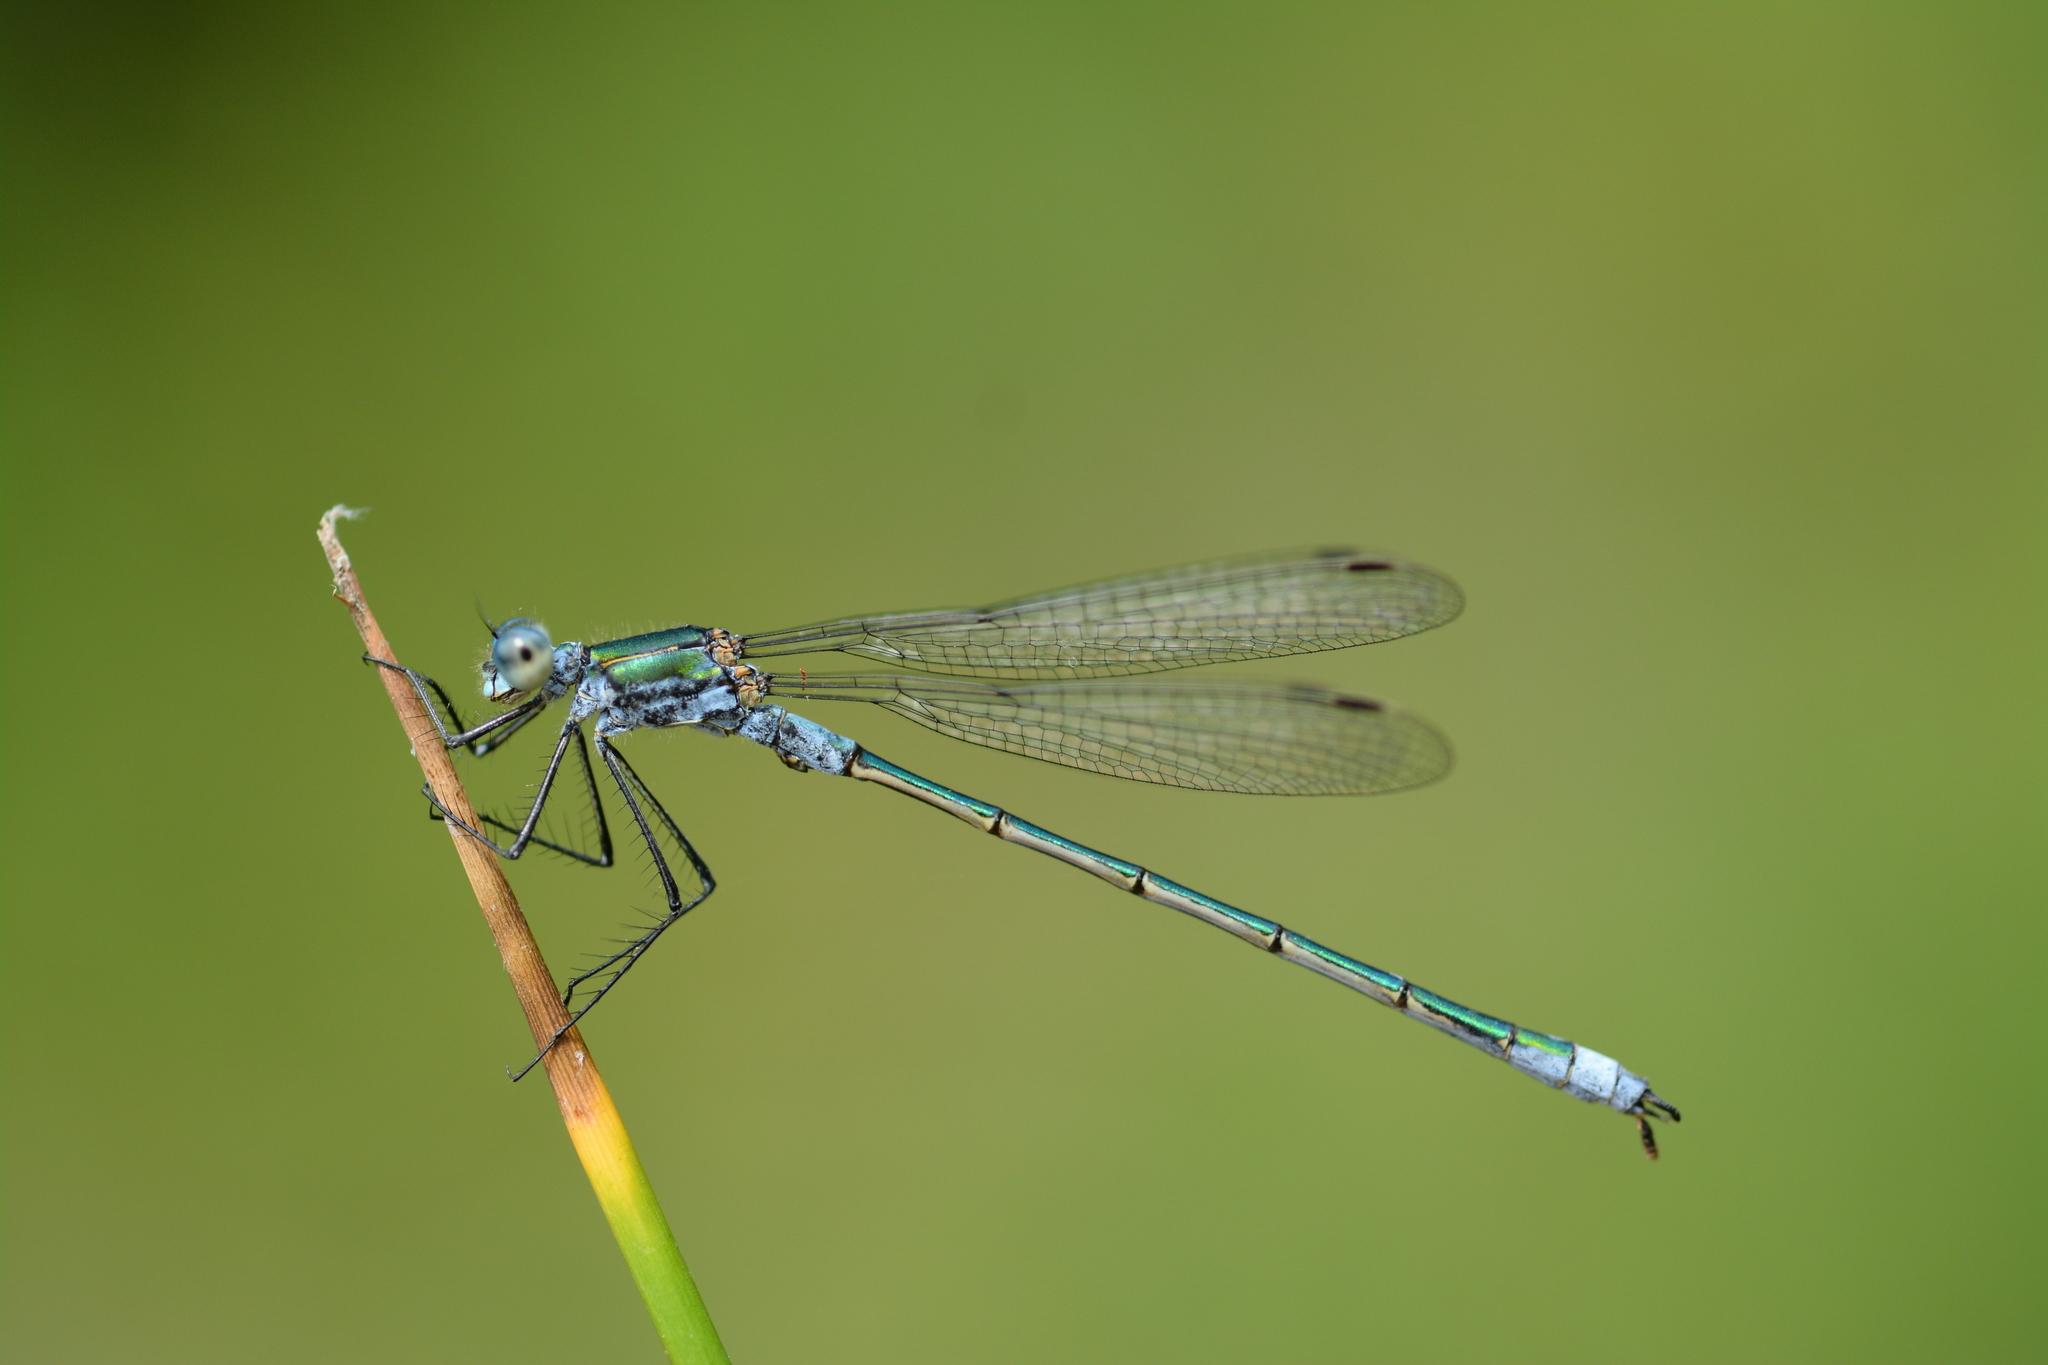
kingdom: Animalia
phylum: Arthropoda
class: Insecta
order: Odonata
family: Lestidae
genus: Lestes
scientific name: Lestes sponsa
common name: Common spreadwing
